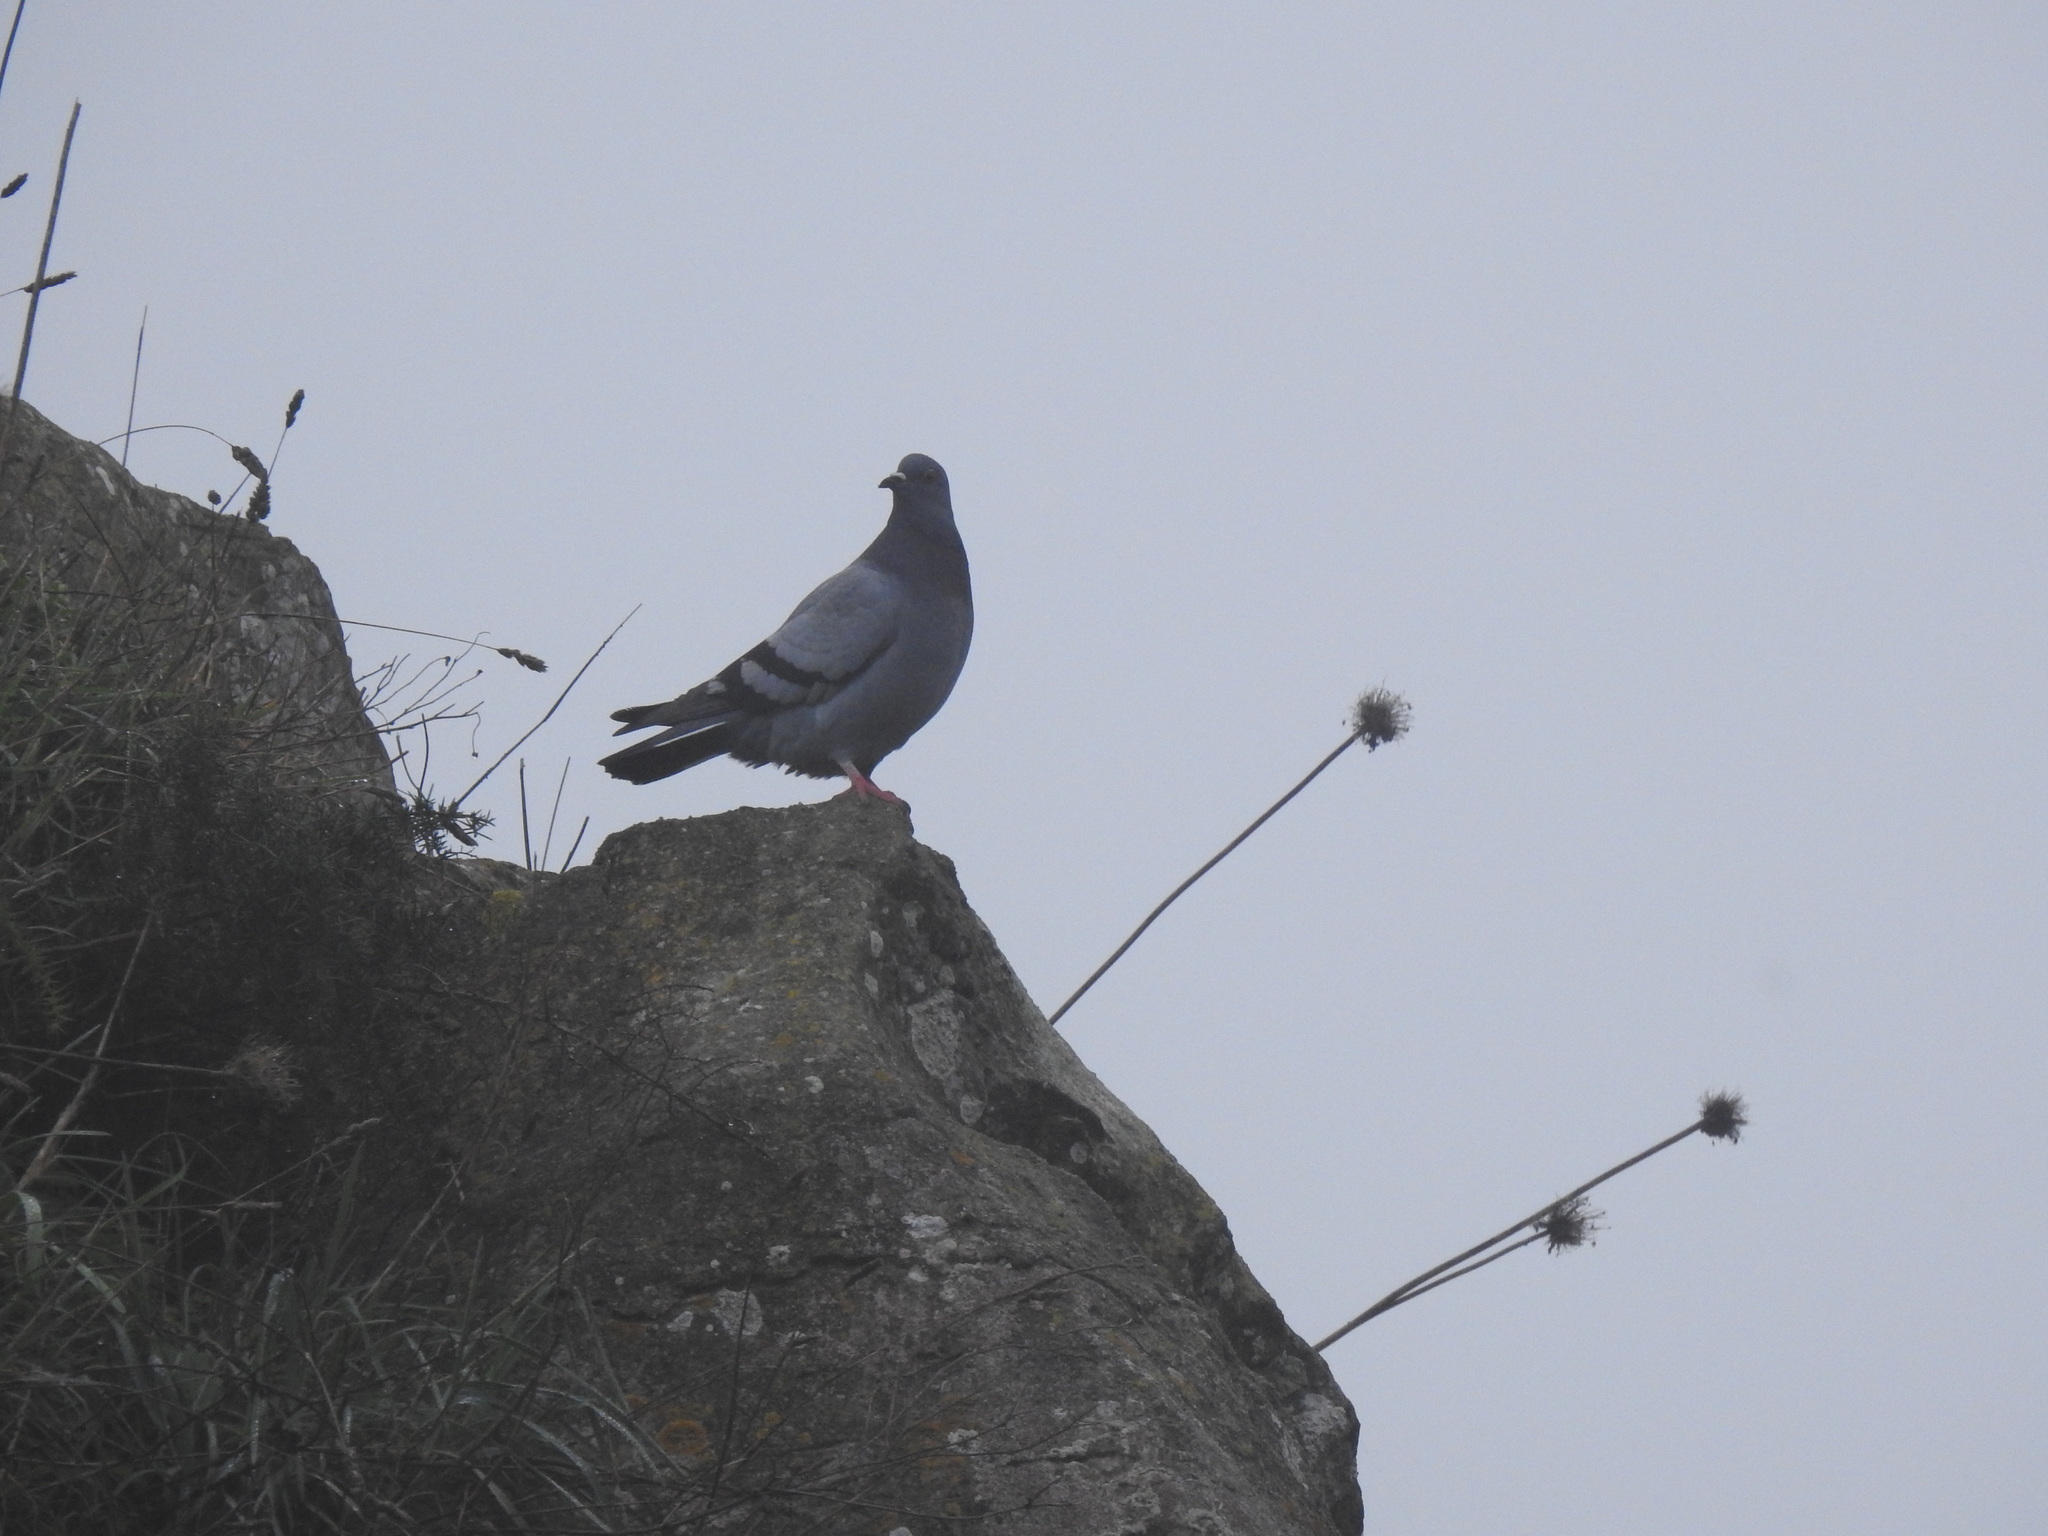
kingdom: Animalia
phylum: Chordata
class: Aves
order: Columbiformes
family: Columbidae
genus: Columba
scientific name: Columba livia
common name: Rock pigeon
